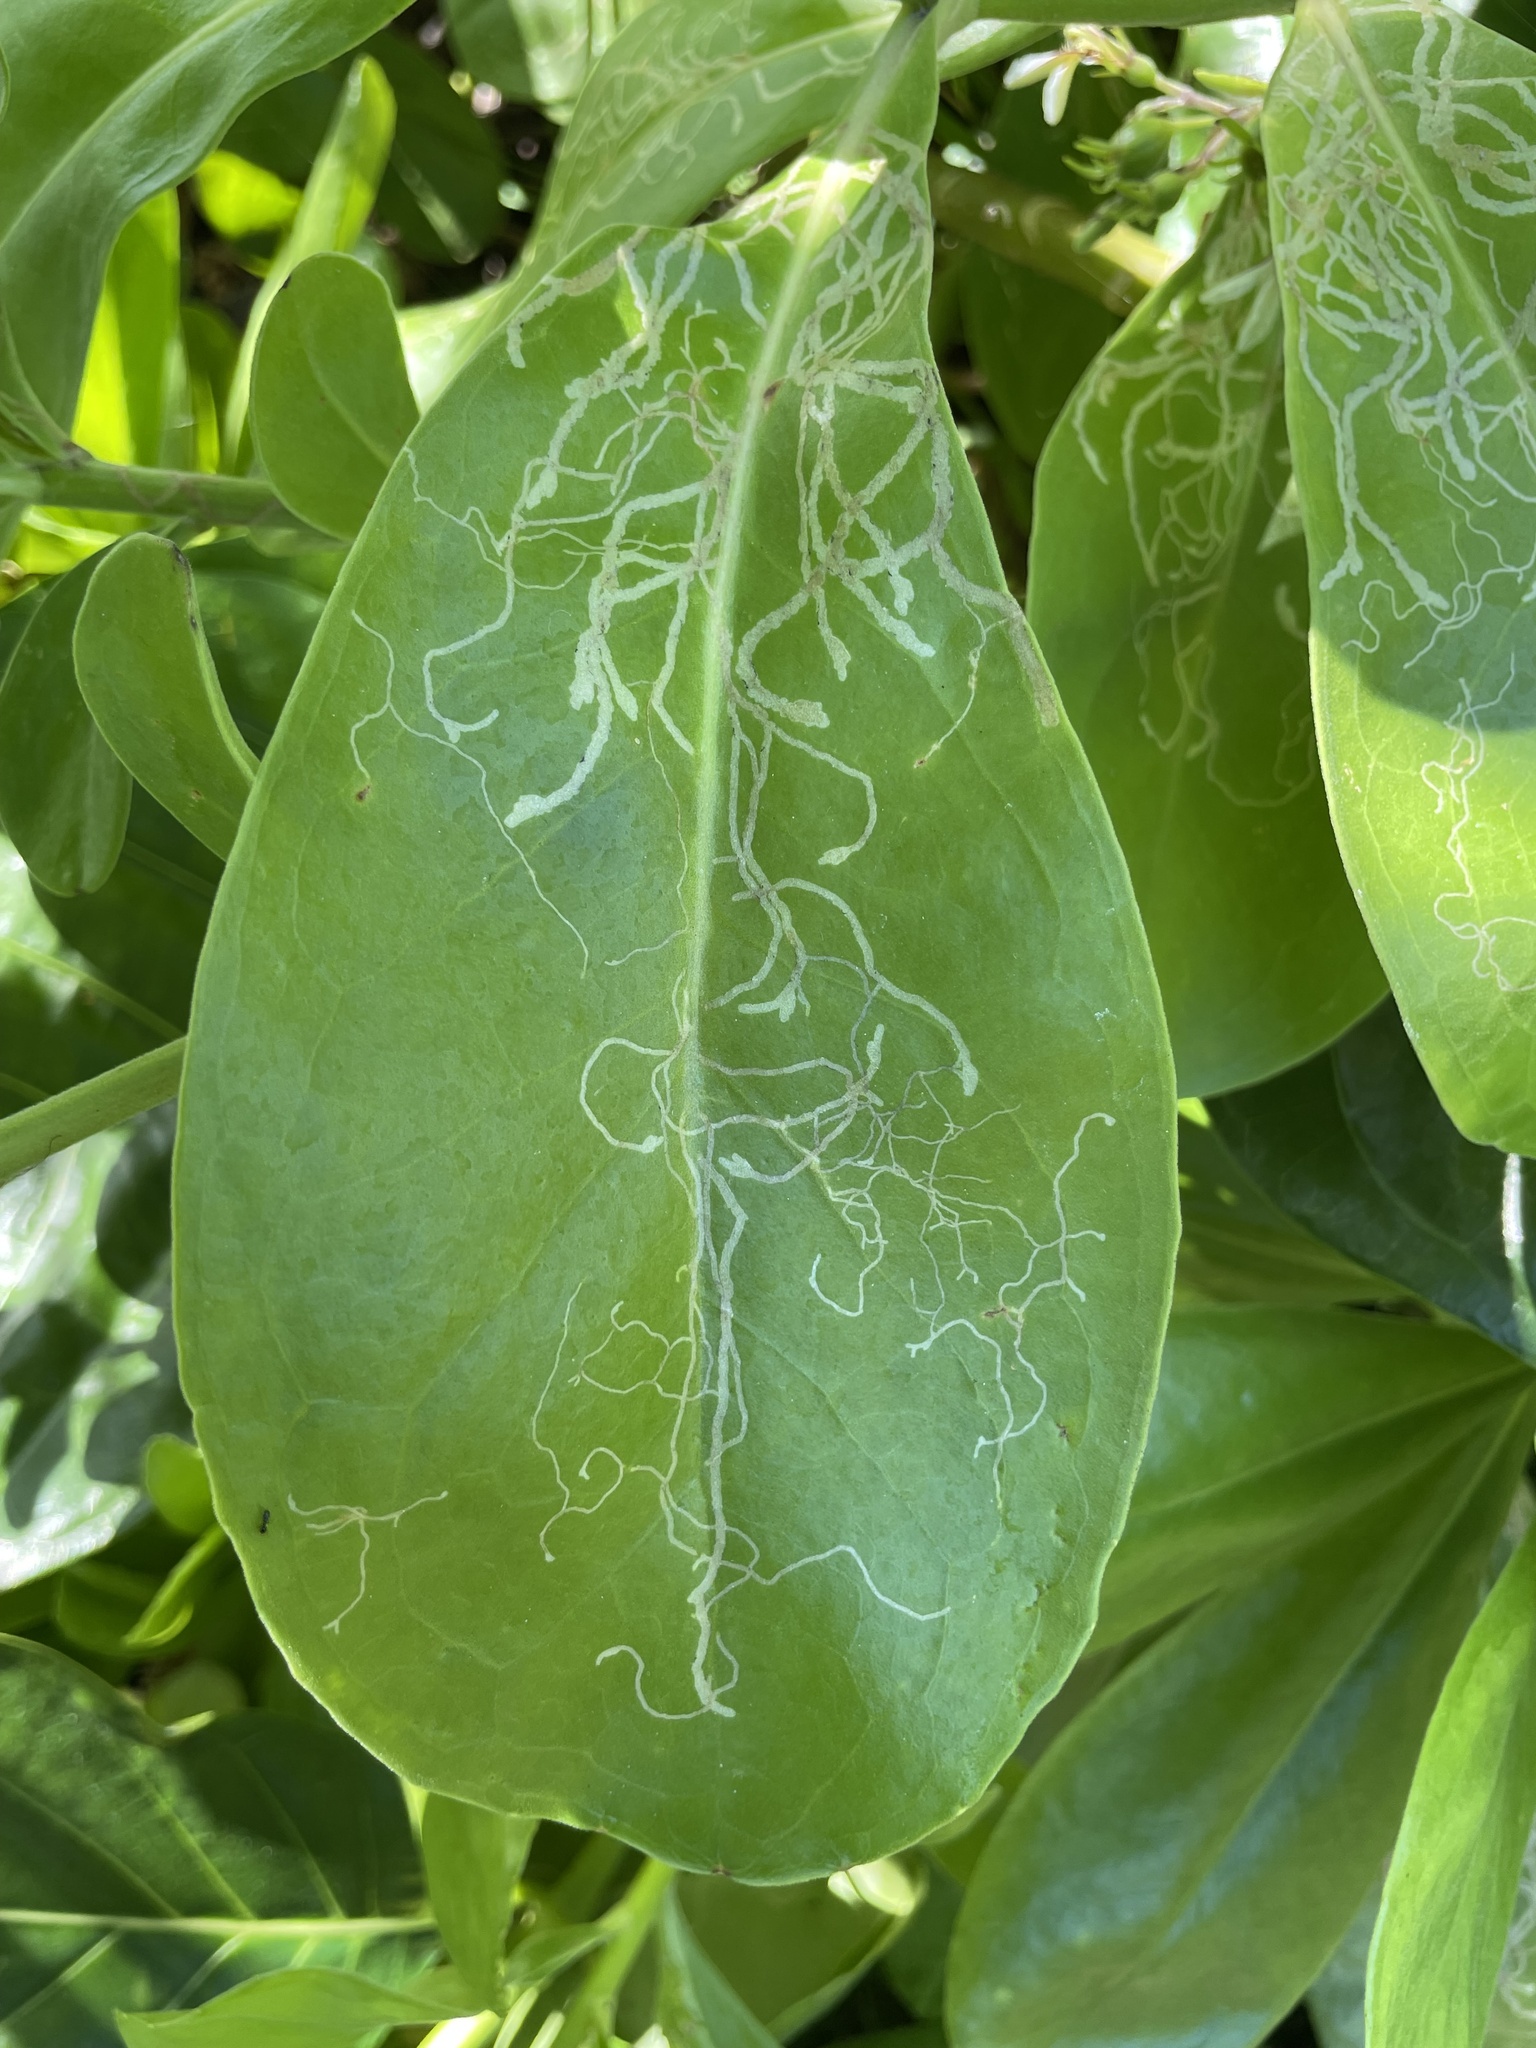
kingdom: Animalia
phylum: Arthropoda
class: Insecta
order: Diptera
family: Agromyzidae
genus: Ophiomyia
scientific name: Ophiomyia cornuta
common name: Leafminer fly
